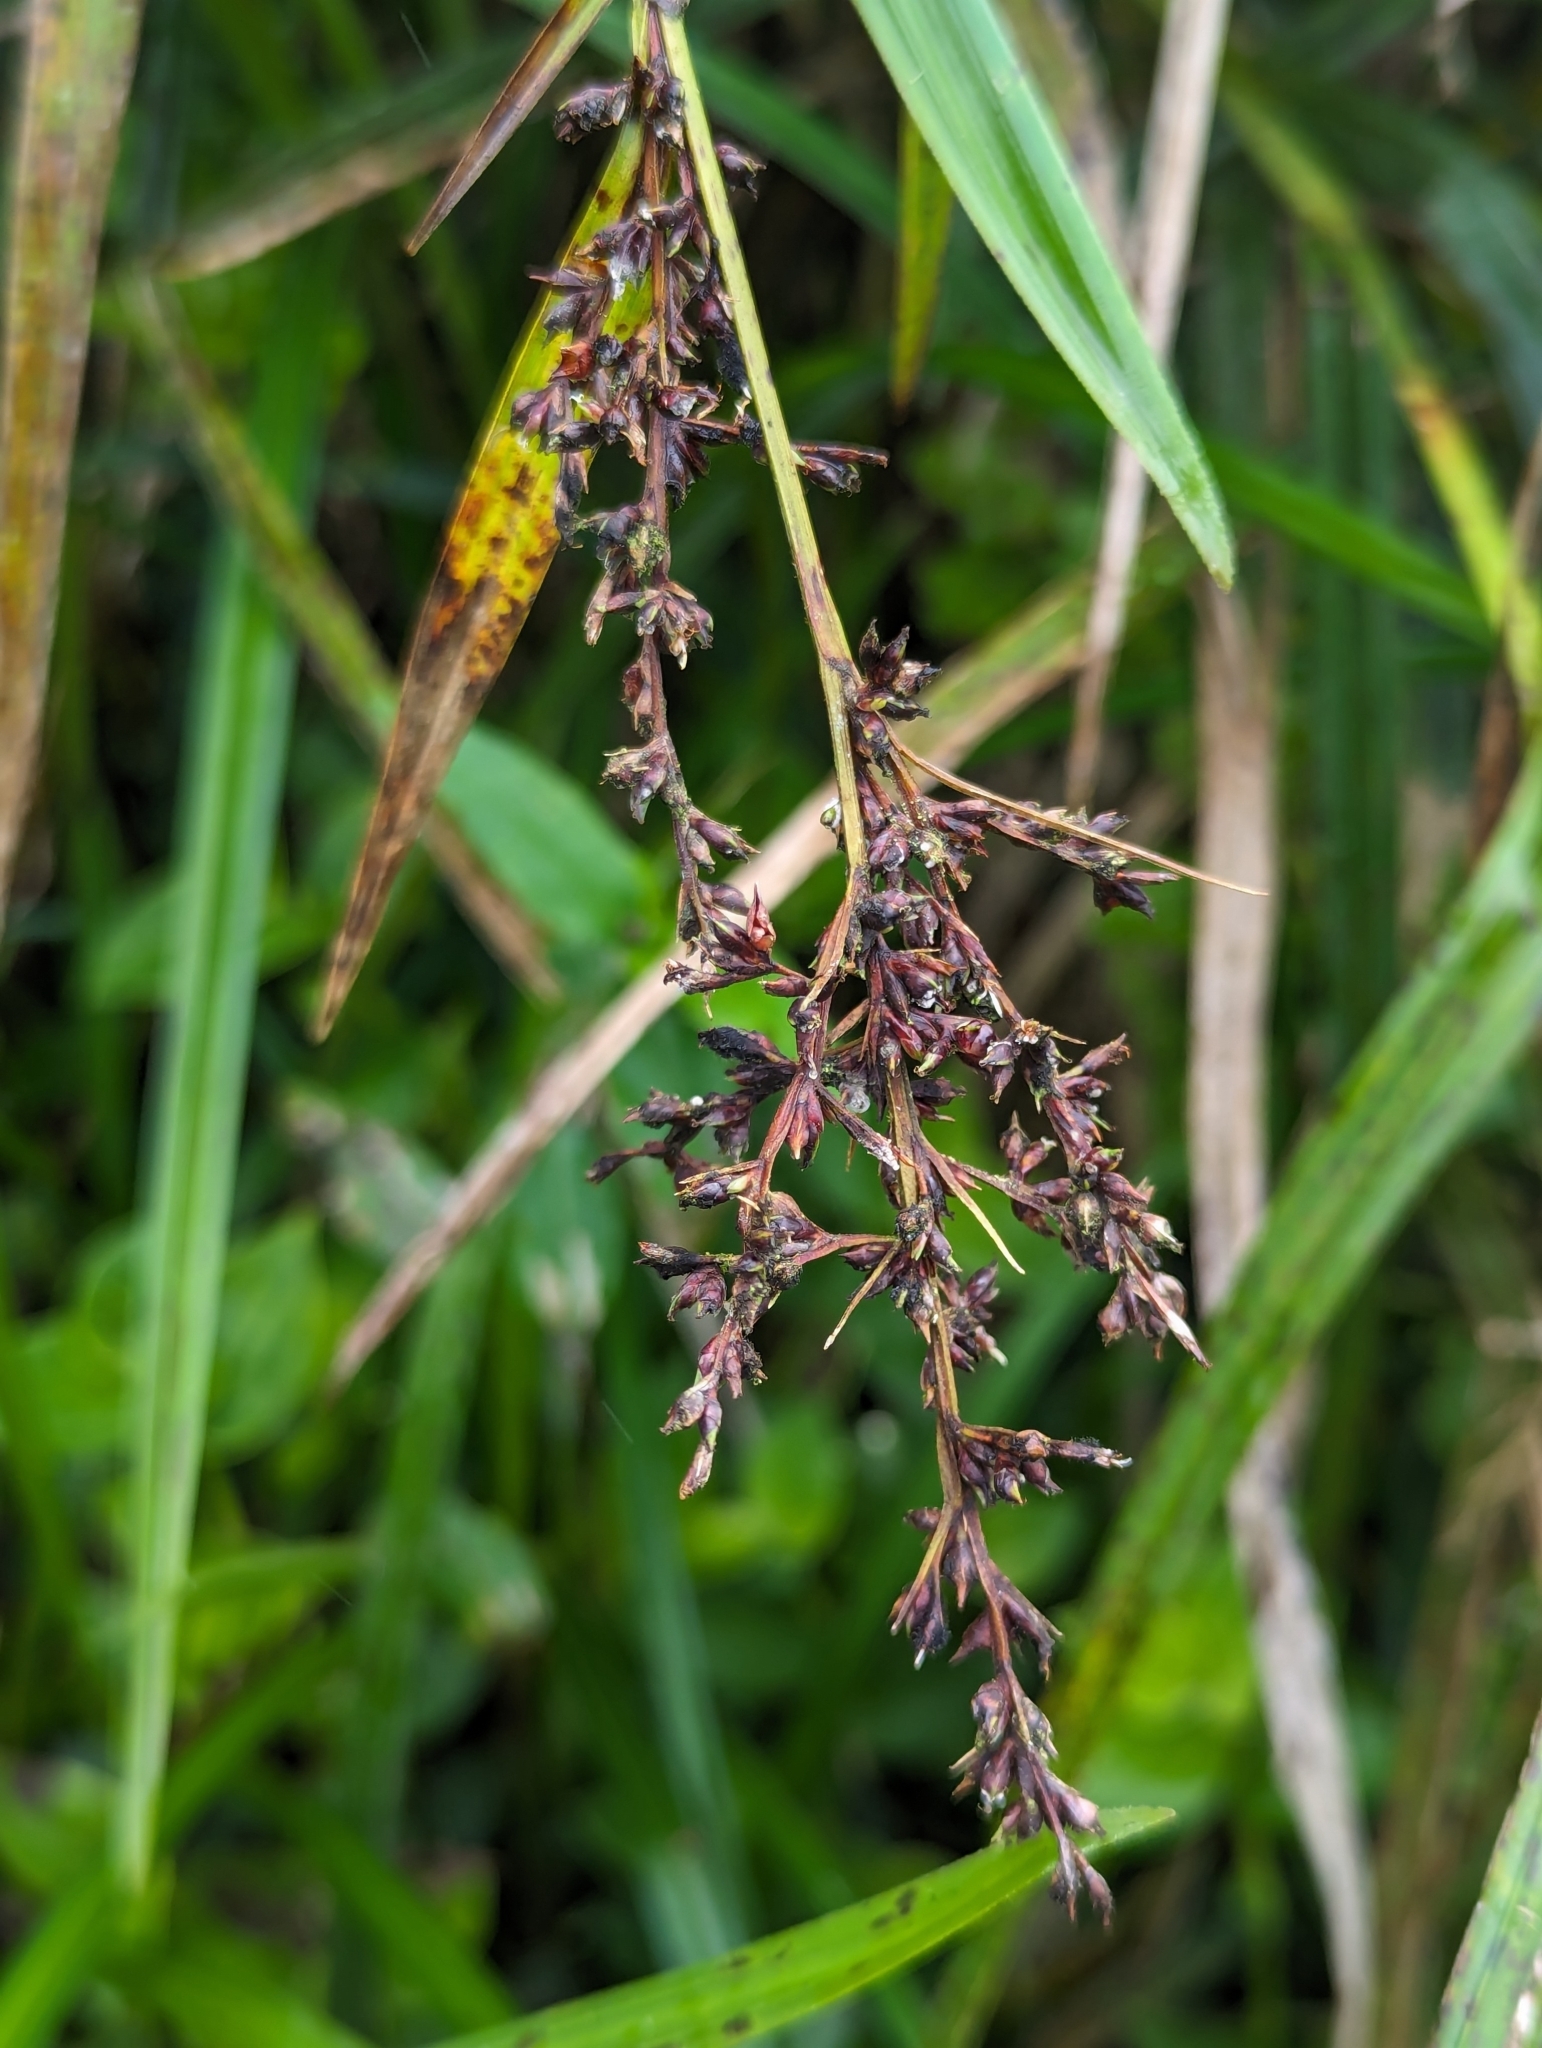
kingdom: Plantae
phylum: Tracheophyta
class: Liliopsida
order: Poales
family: Cyperaceae
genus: Scleria
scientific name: Scleria gaertneri
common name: Cortadera blanca
